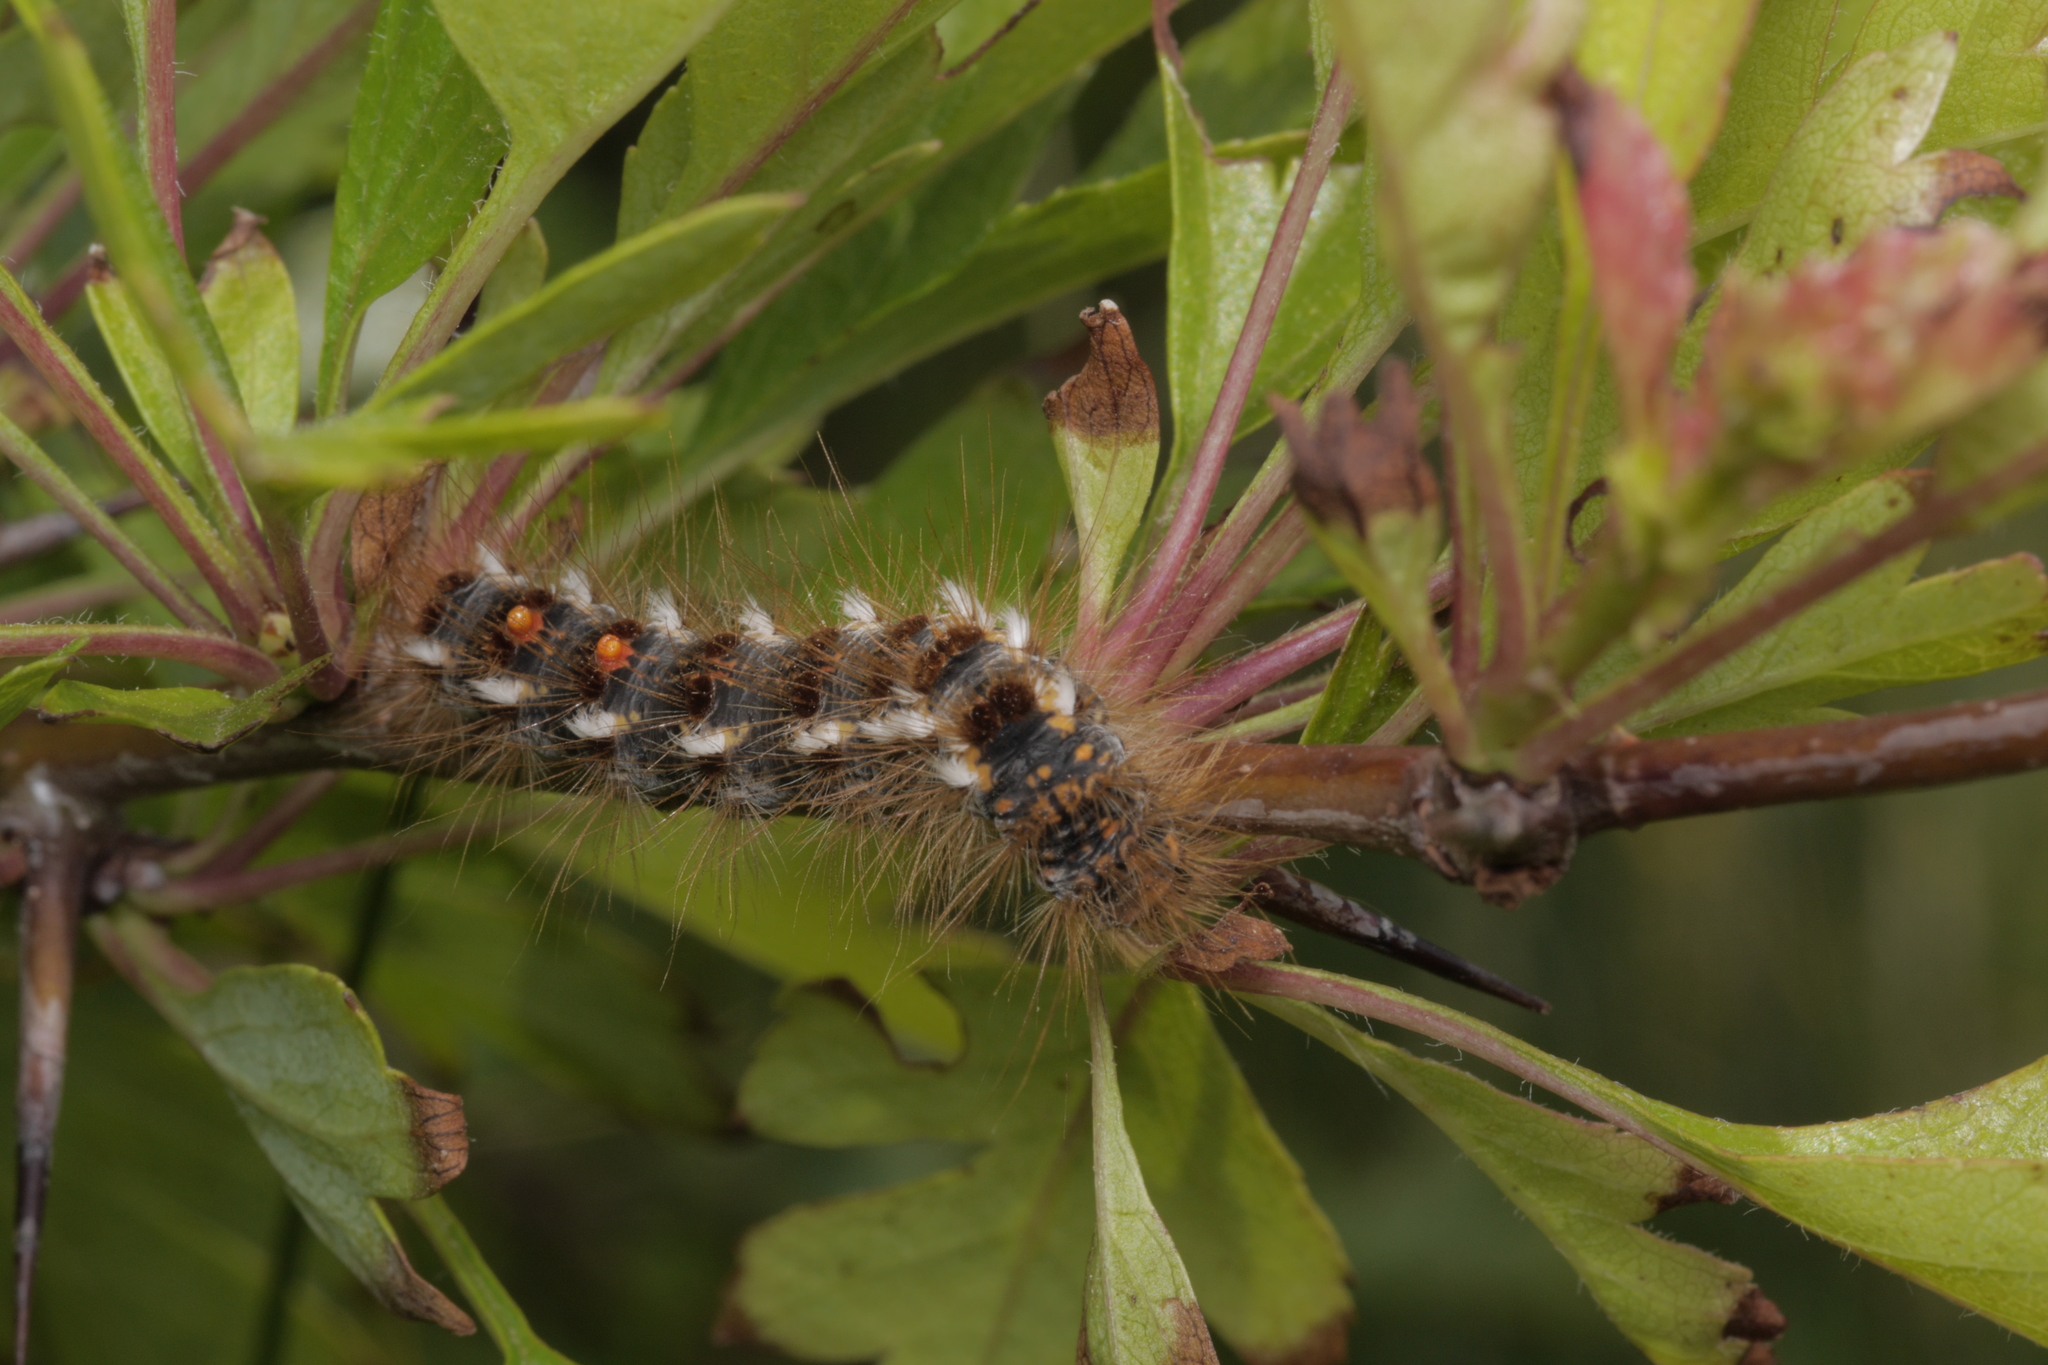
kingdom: Animalia
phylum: Arthropoda
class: Insecta
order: Lepidoptera
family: Erebidae
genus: Euproctis
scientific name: Euproctis chrysorrhoea
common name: Brown-tail
